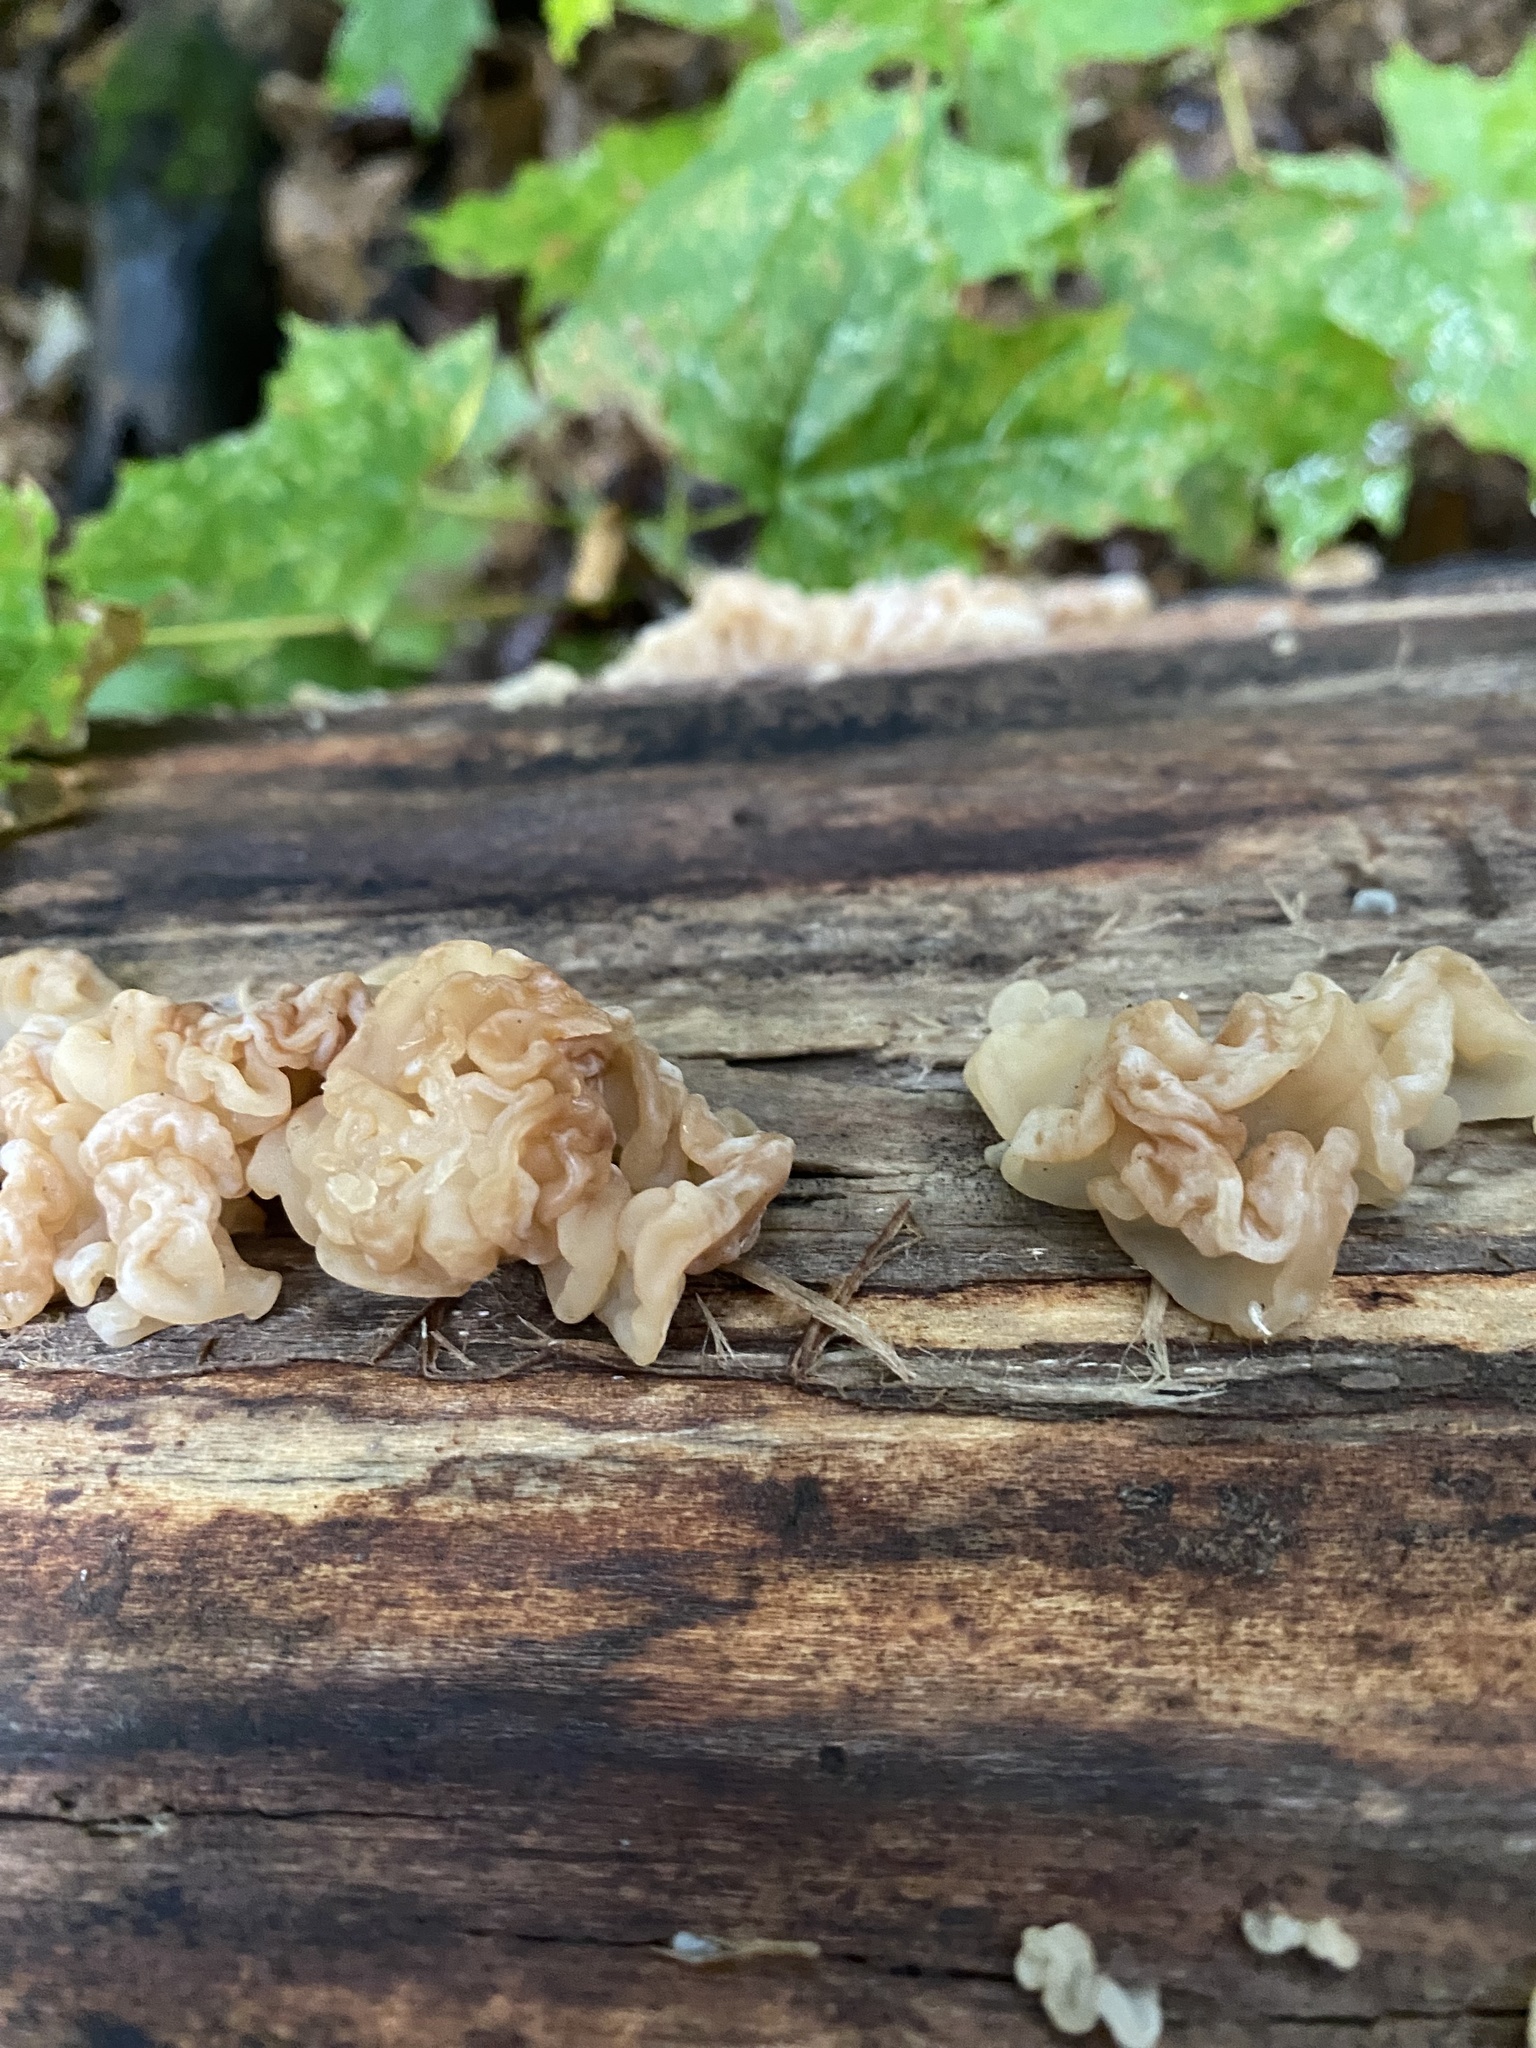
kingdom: Fungi
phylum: Basidiomycota
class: Agaricomycetes
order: Auriculariales
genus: Ductifera
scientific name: Ductifera pululahuana
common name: White jelly fungus
